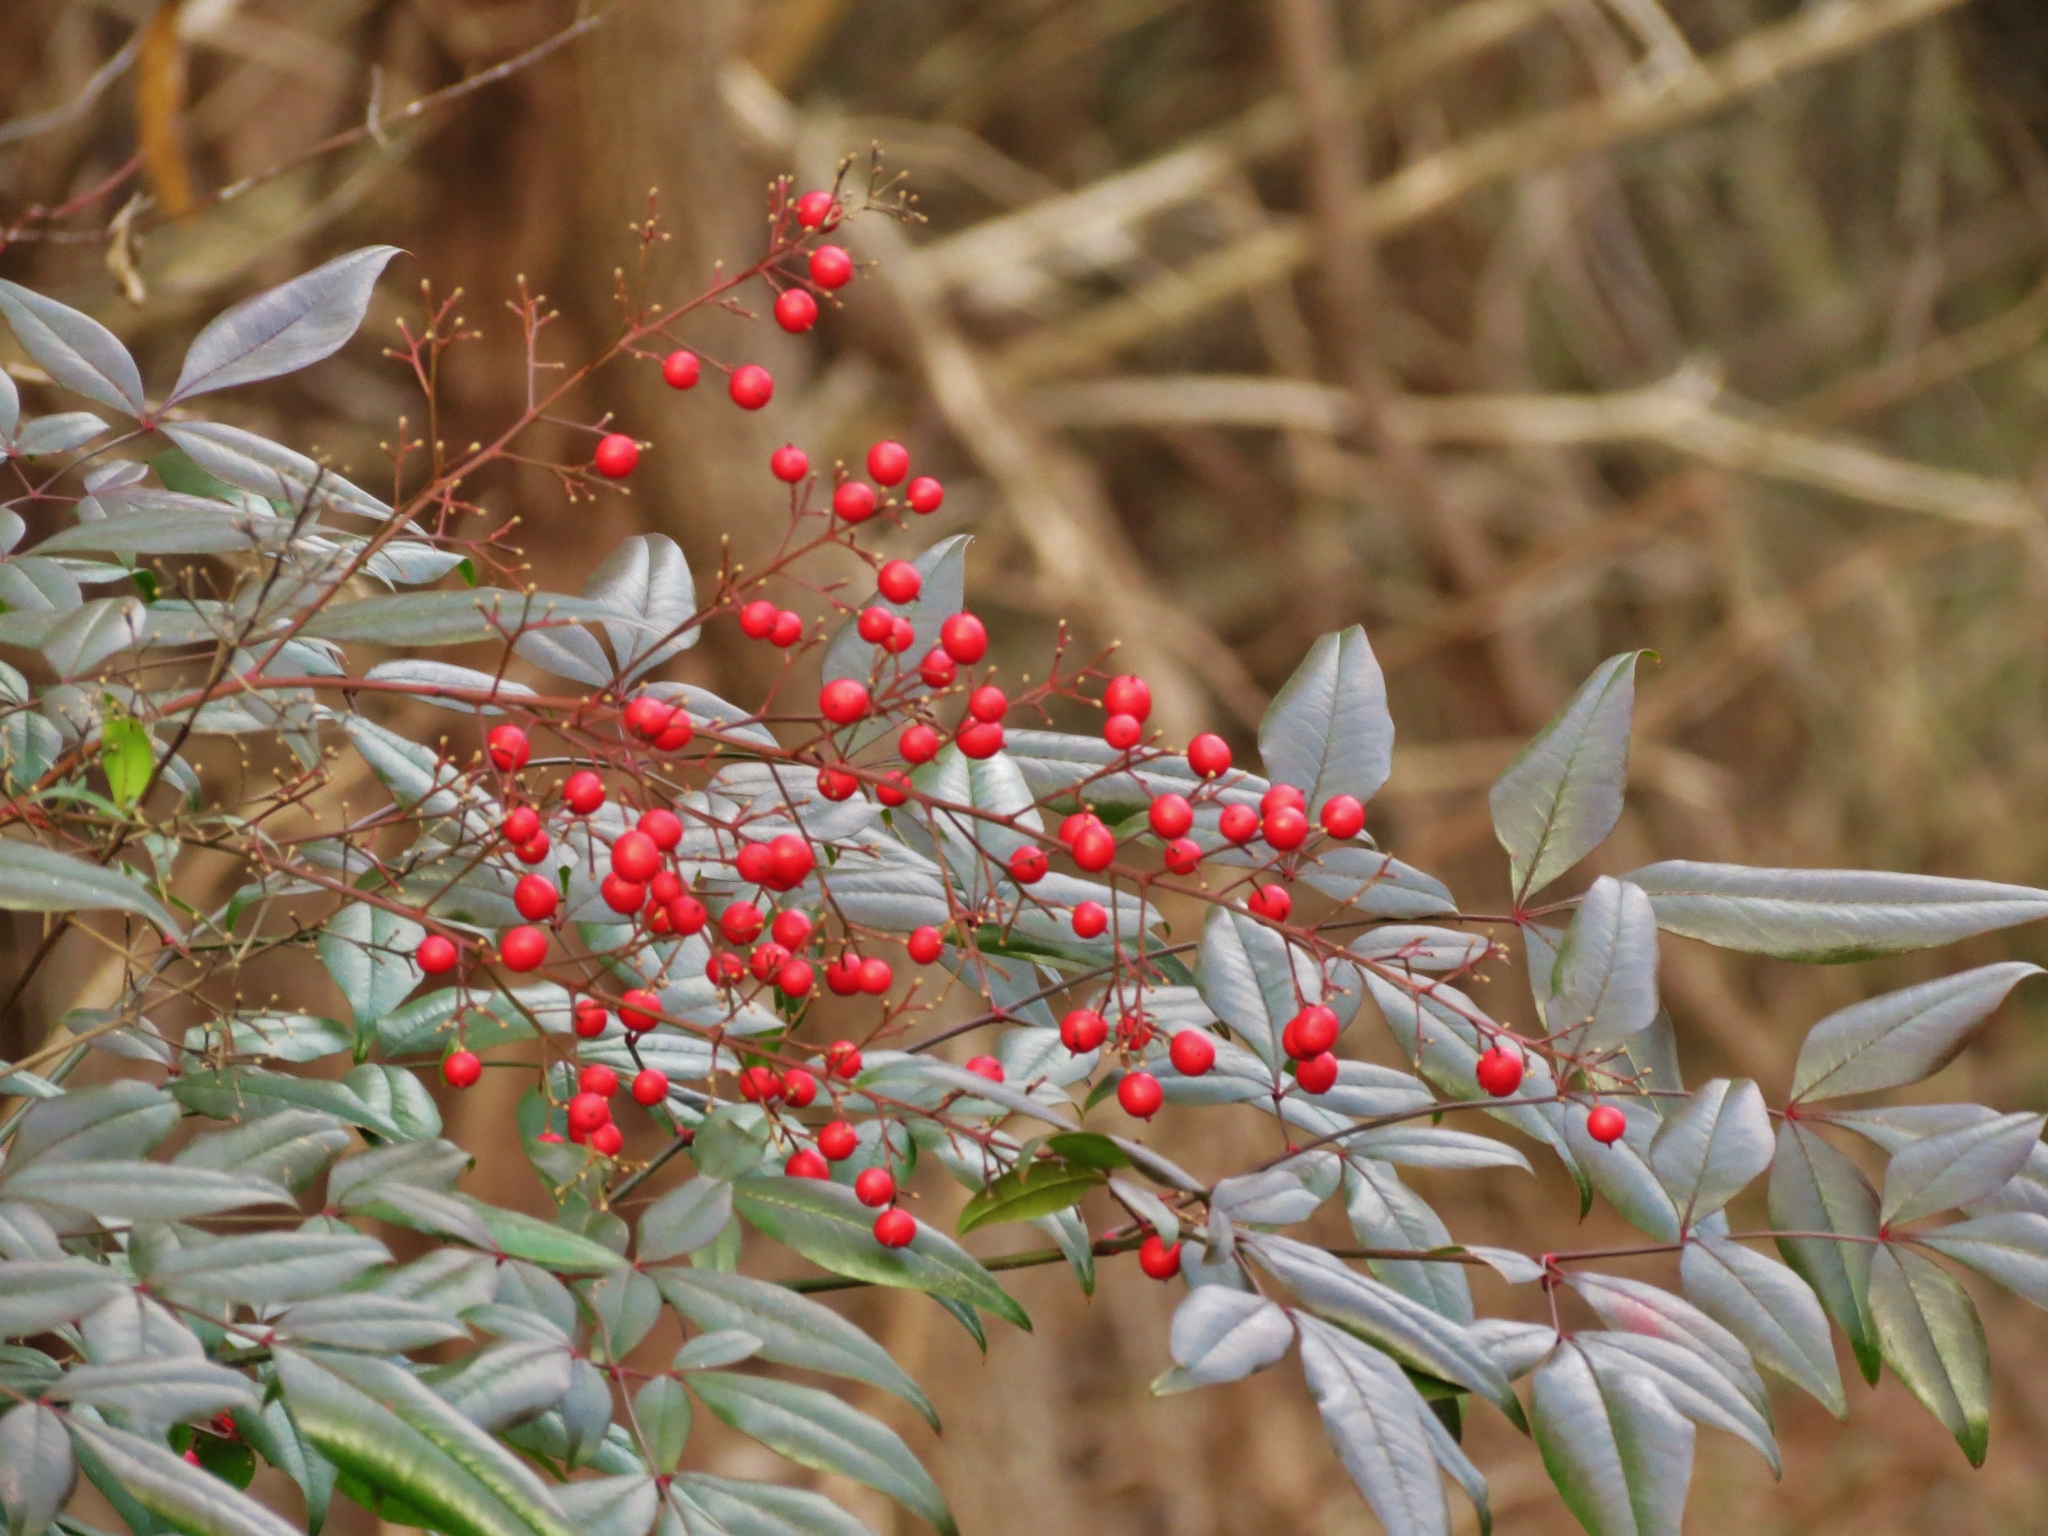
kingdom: Plantae
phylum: Tracheophyta
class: Magnoliopsida
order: Ranunculales
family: Berberidaceae
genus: Nandina
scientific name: Nandina domestica
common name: Sacred bamboo
